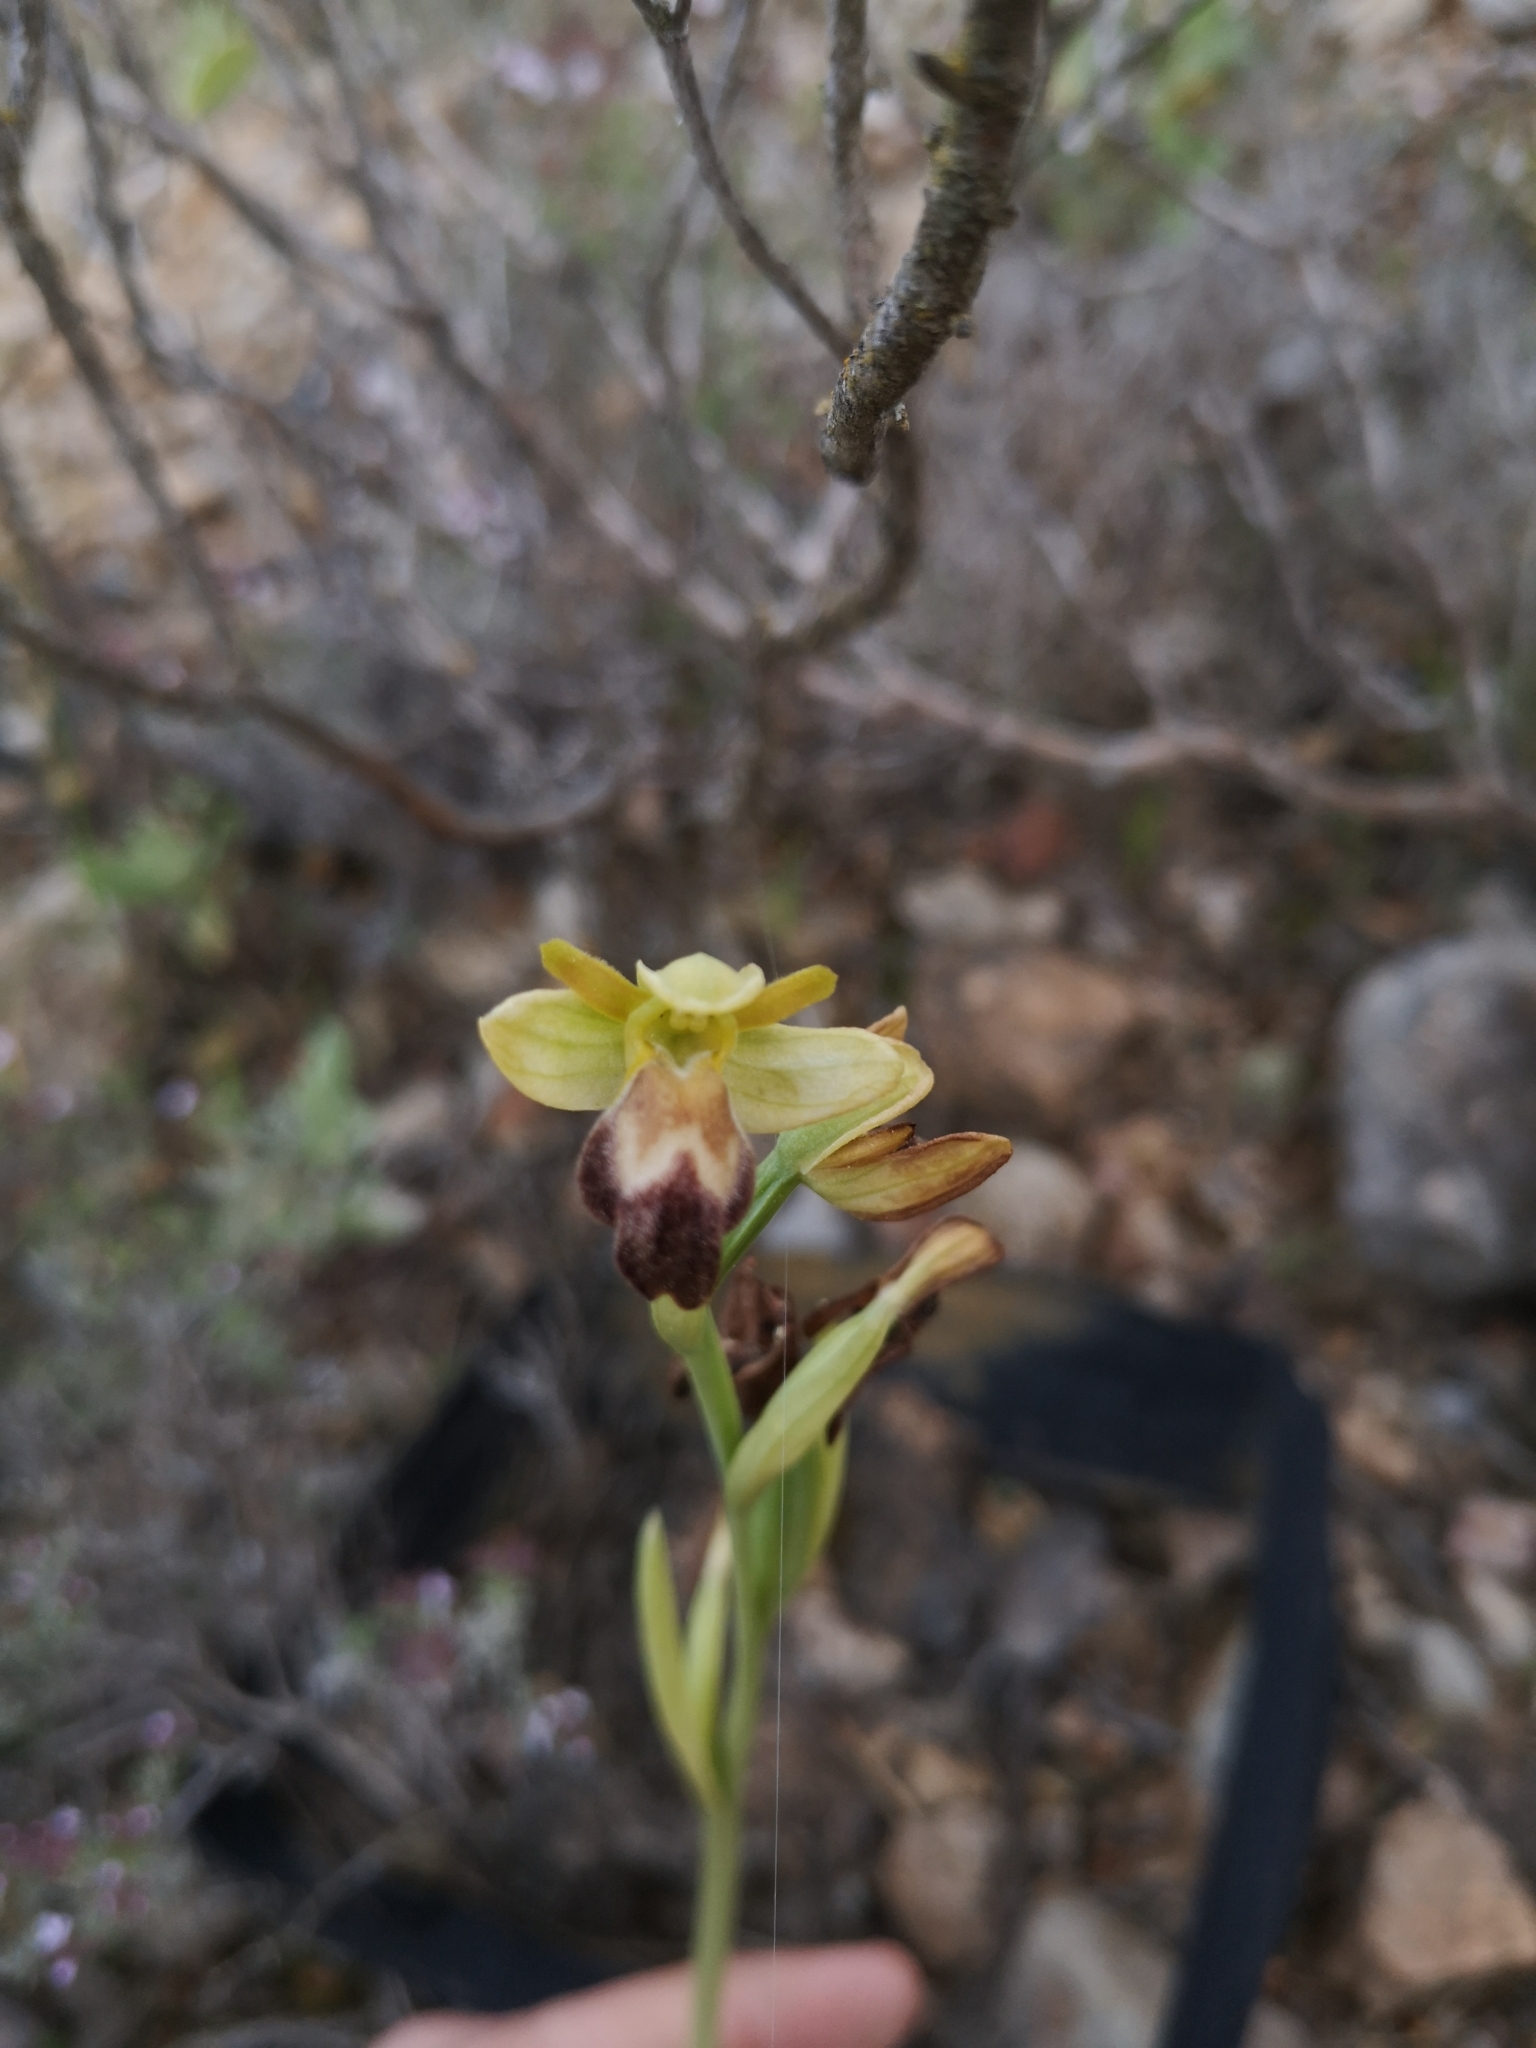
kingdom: Plantae
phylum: Tracheophyta
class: Liliopsida
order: Asparagales
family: Orchidaceae
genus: Ophrys
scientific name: Ophrys fusca
